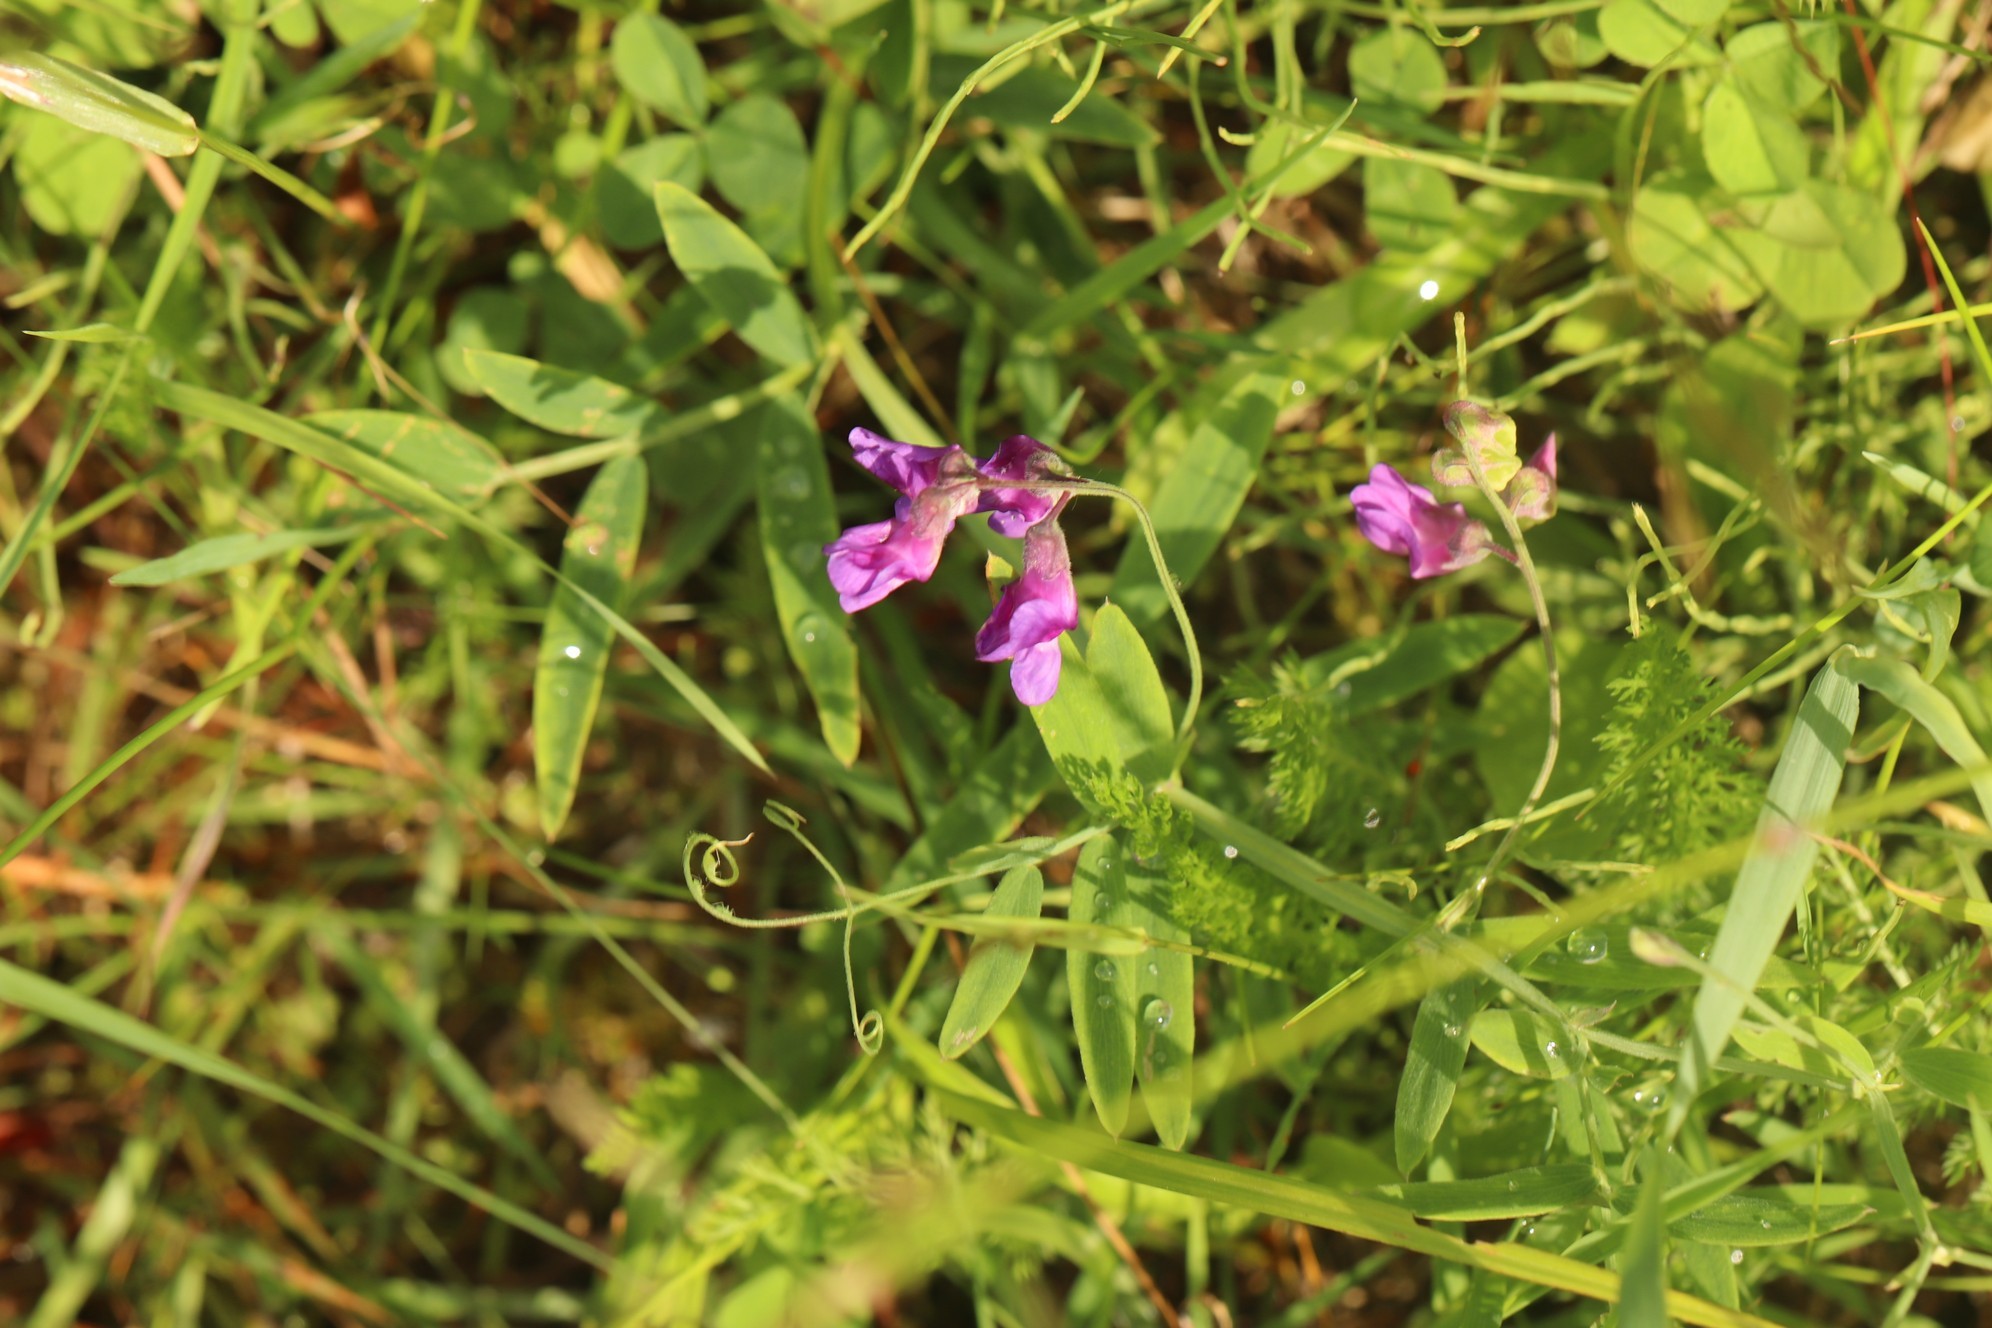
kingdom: Plantae
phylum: Tracheophyta
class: Magnoliopsida
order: Fabales
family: Fabaceae
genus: Lathyrus
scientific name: Lathyrus palustris
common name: Marsh pea
